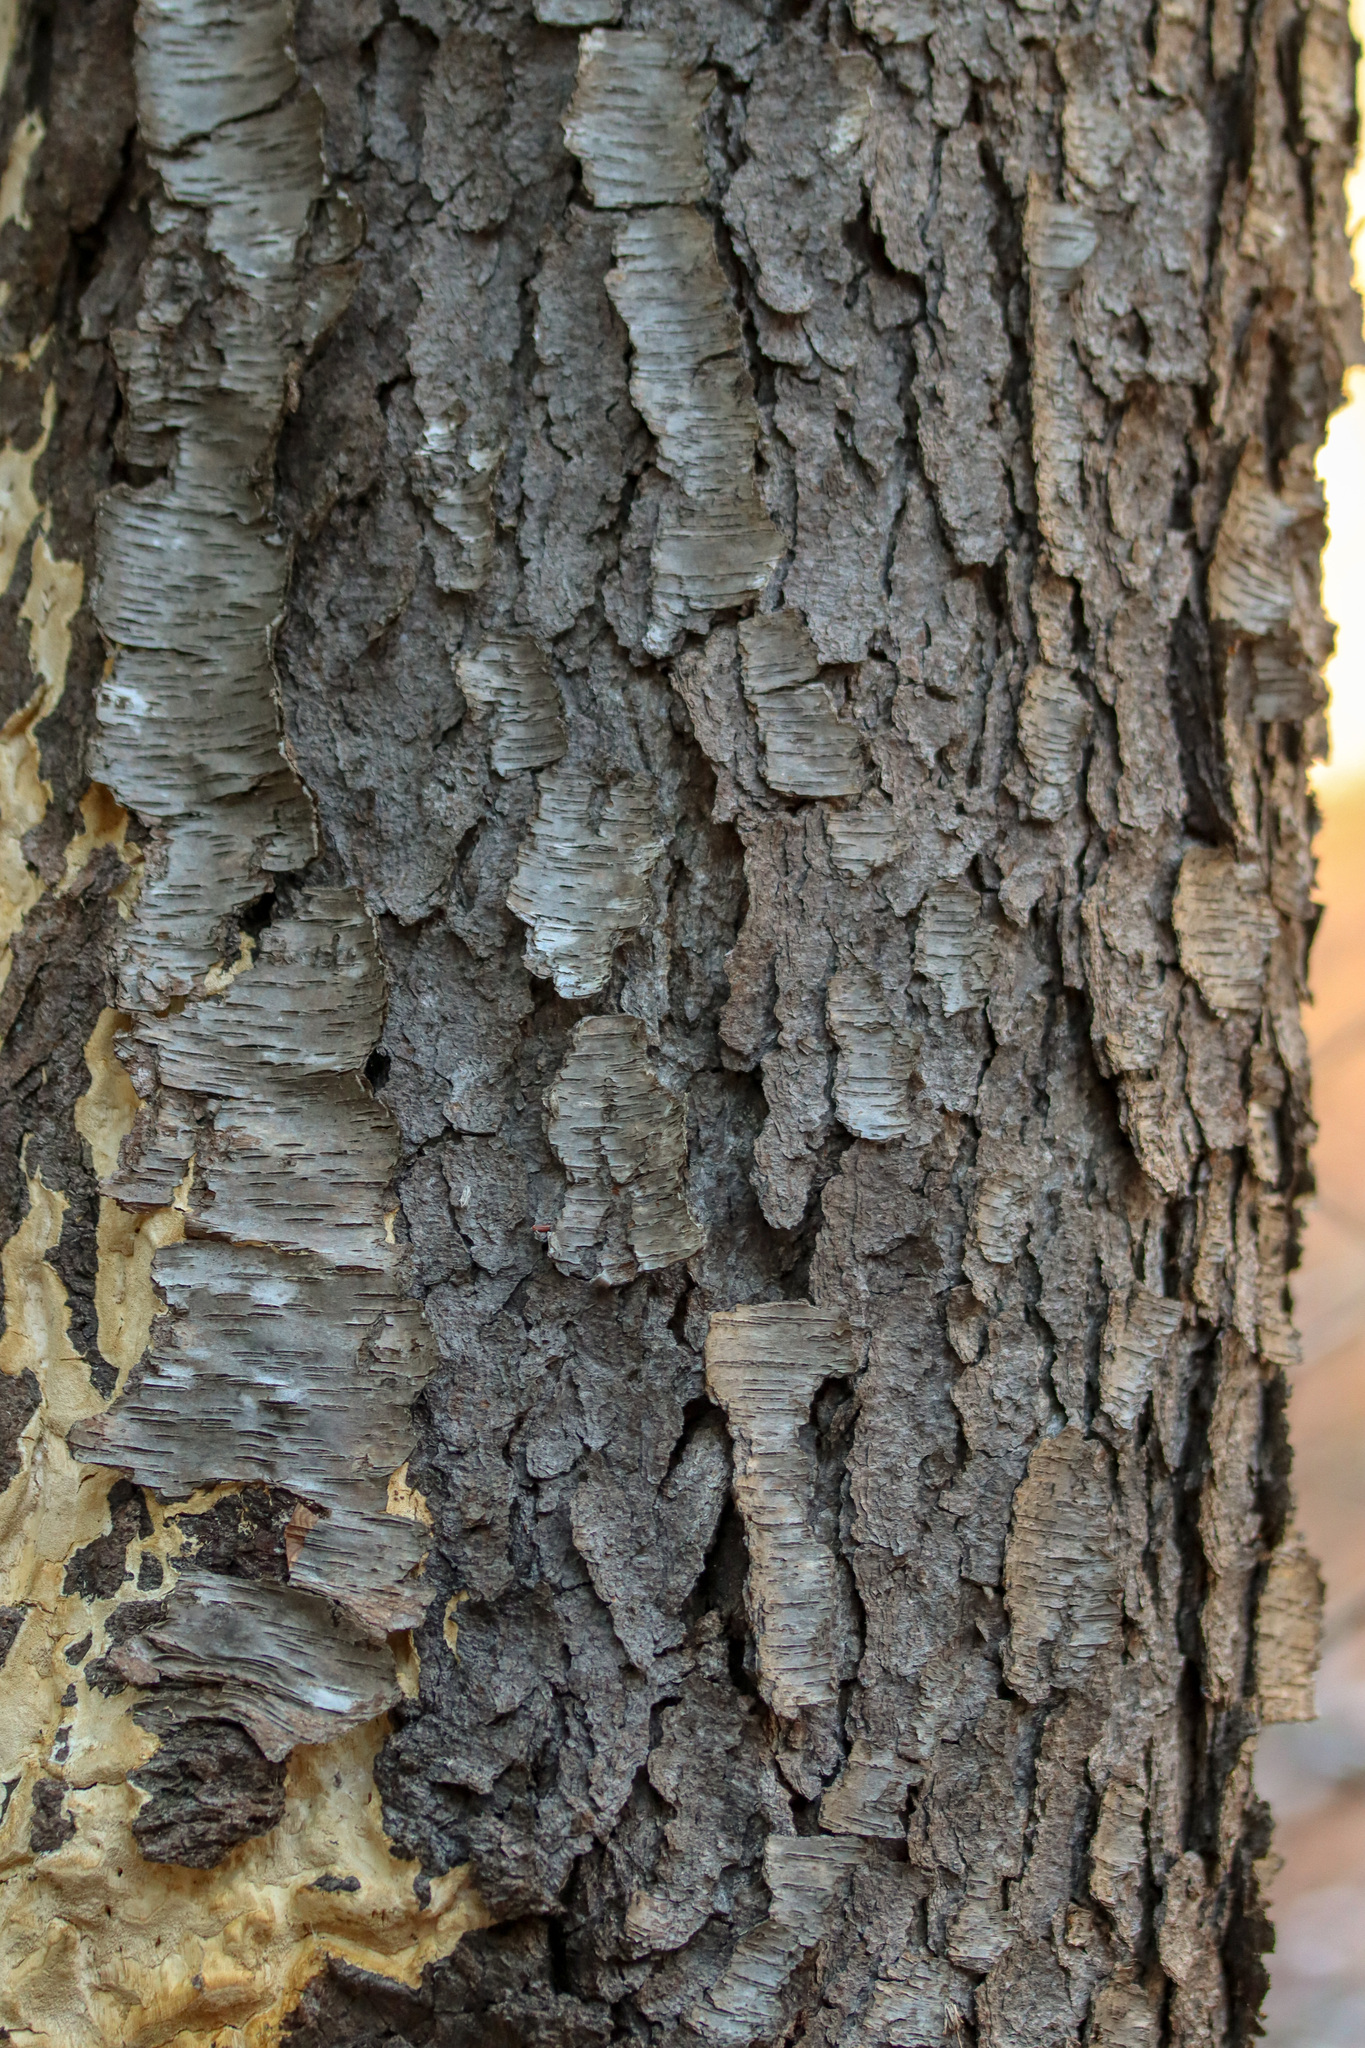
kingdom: Plantae
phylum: Tracheophyta
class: Magnoliopsida
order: Rosales
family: Rosaceae
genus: Prunus
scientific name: Prunus serotina
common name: Black cherry
